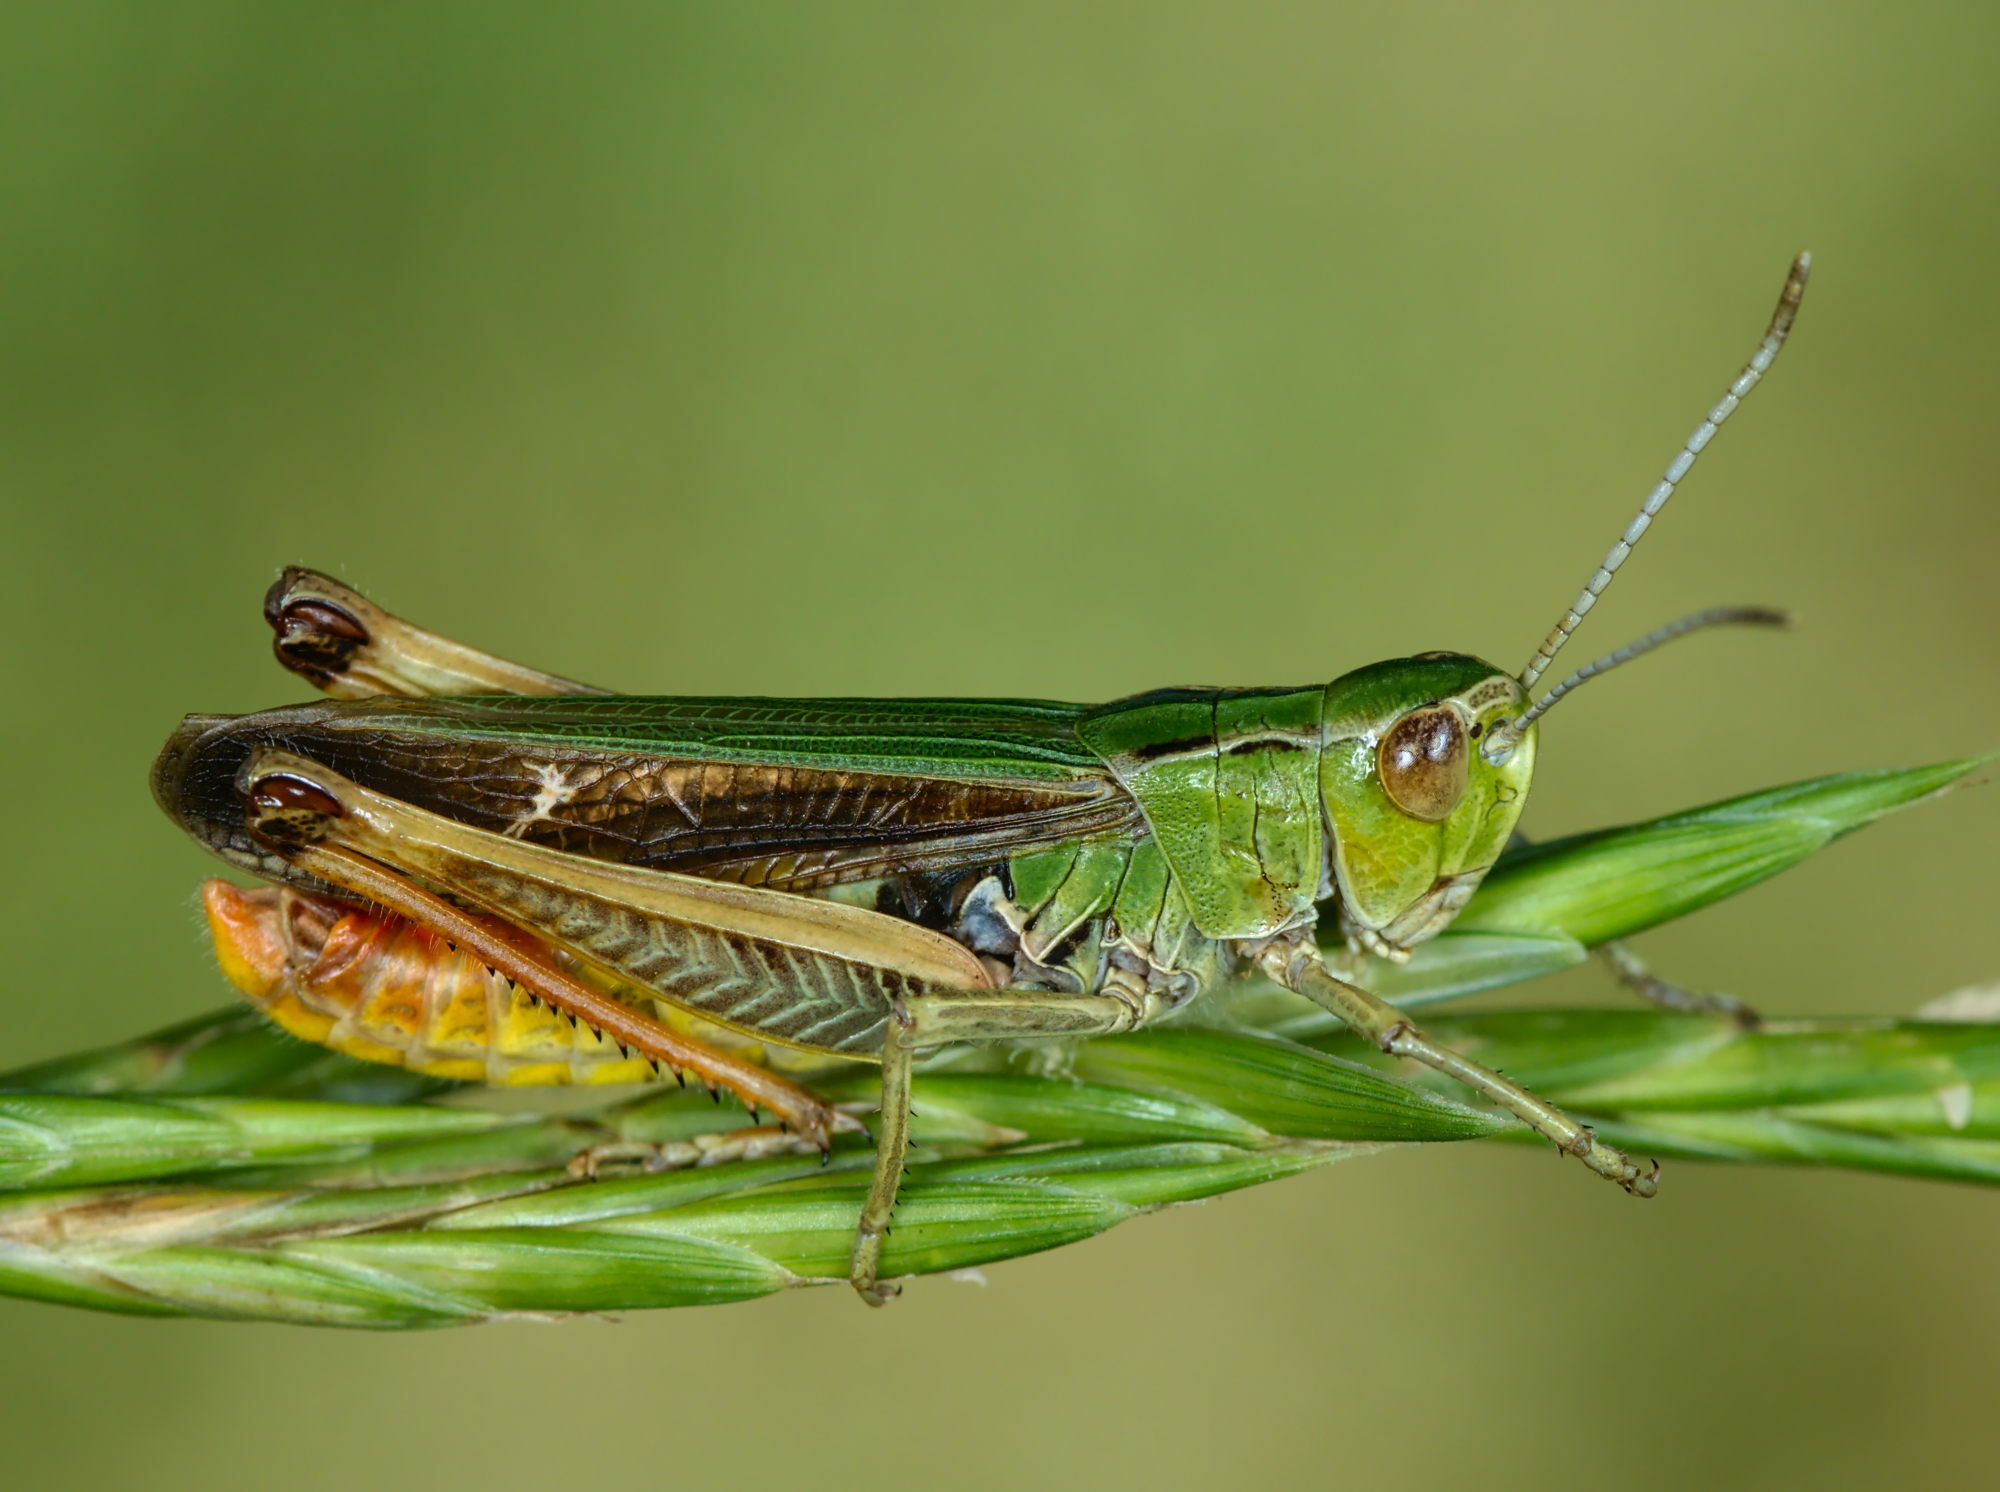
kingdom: Animalia
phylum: Arthropoda
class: Insecta
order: Orthoptera
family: Acrididae
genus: Stenobothrus
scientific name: Stenobothrus lineatus
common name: Stripe-winged grasshopper
